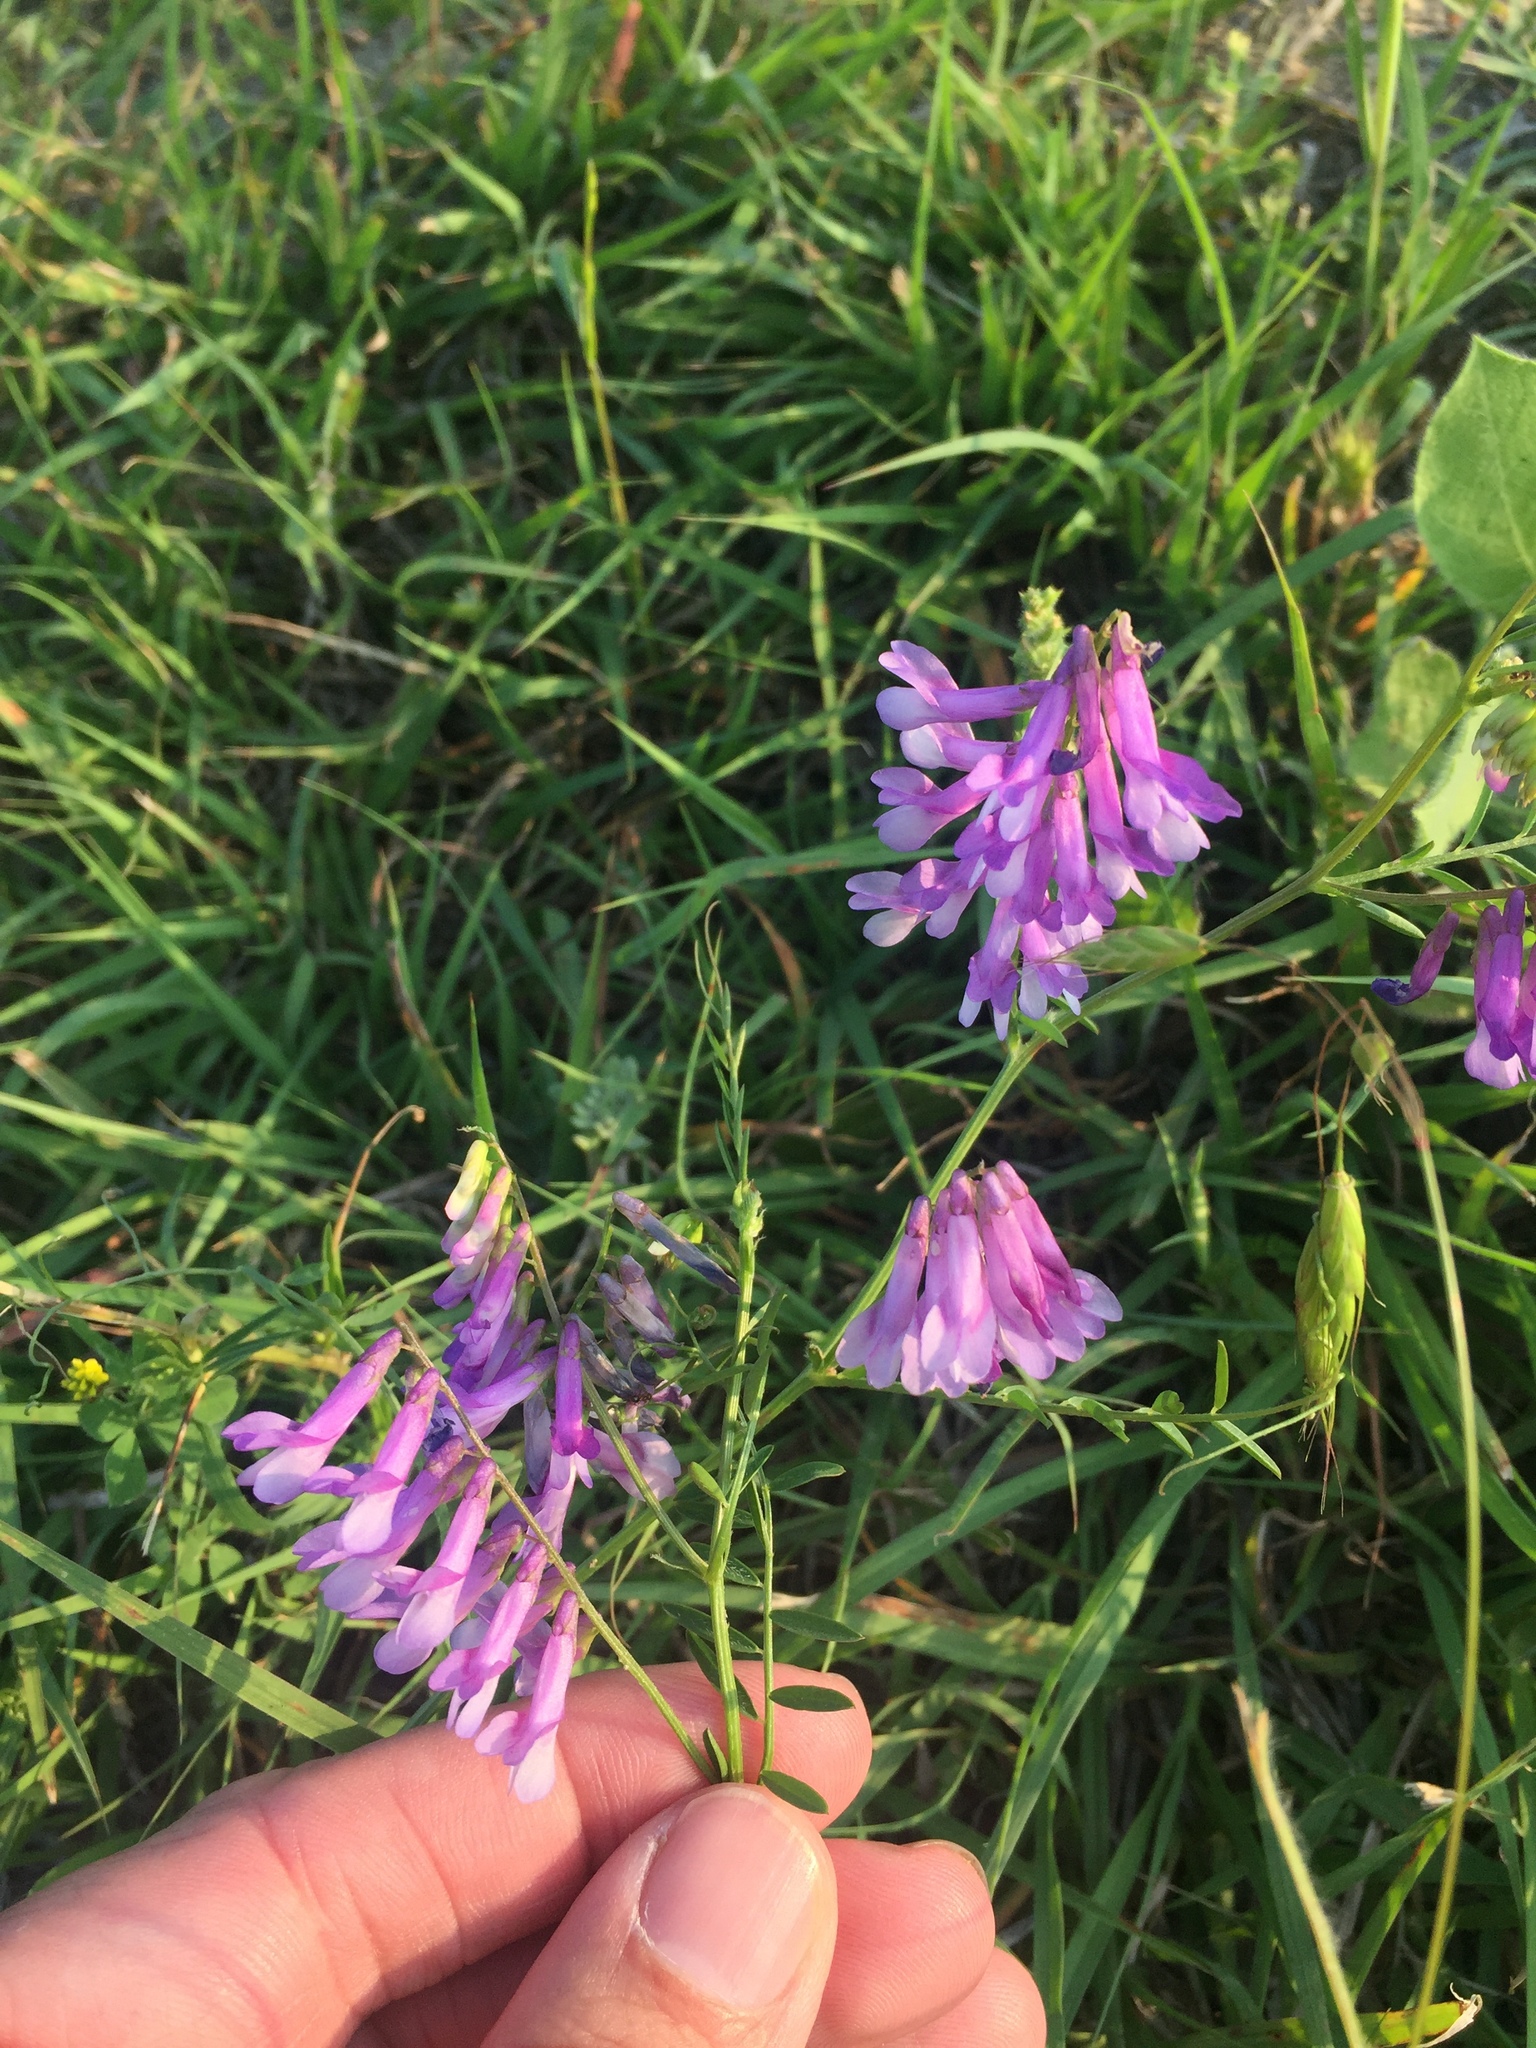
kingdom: Plantae
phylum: Tracheophyta
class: Magnoliopsida
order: Fabales
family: Fabaceae
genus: Vicia
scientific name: Vicia villosa
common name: Fodder vetch
